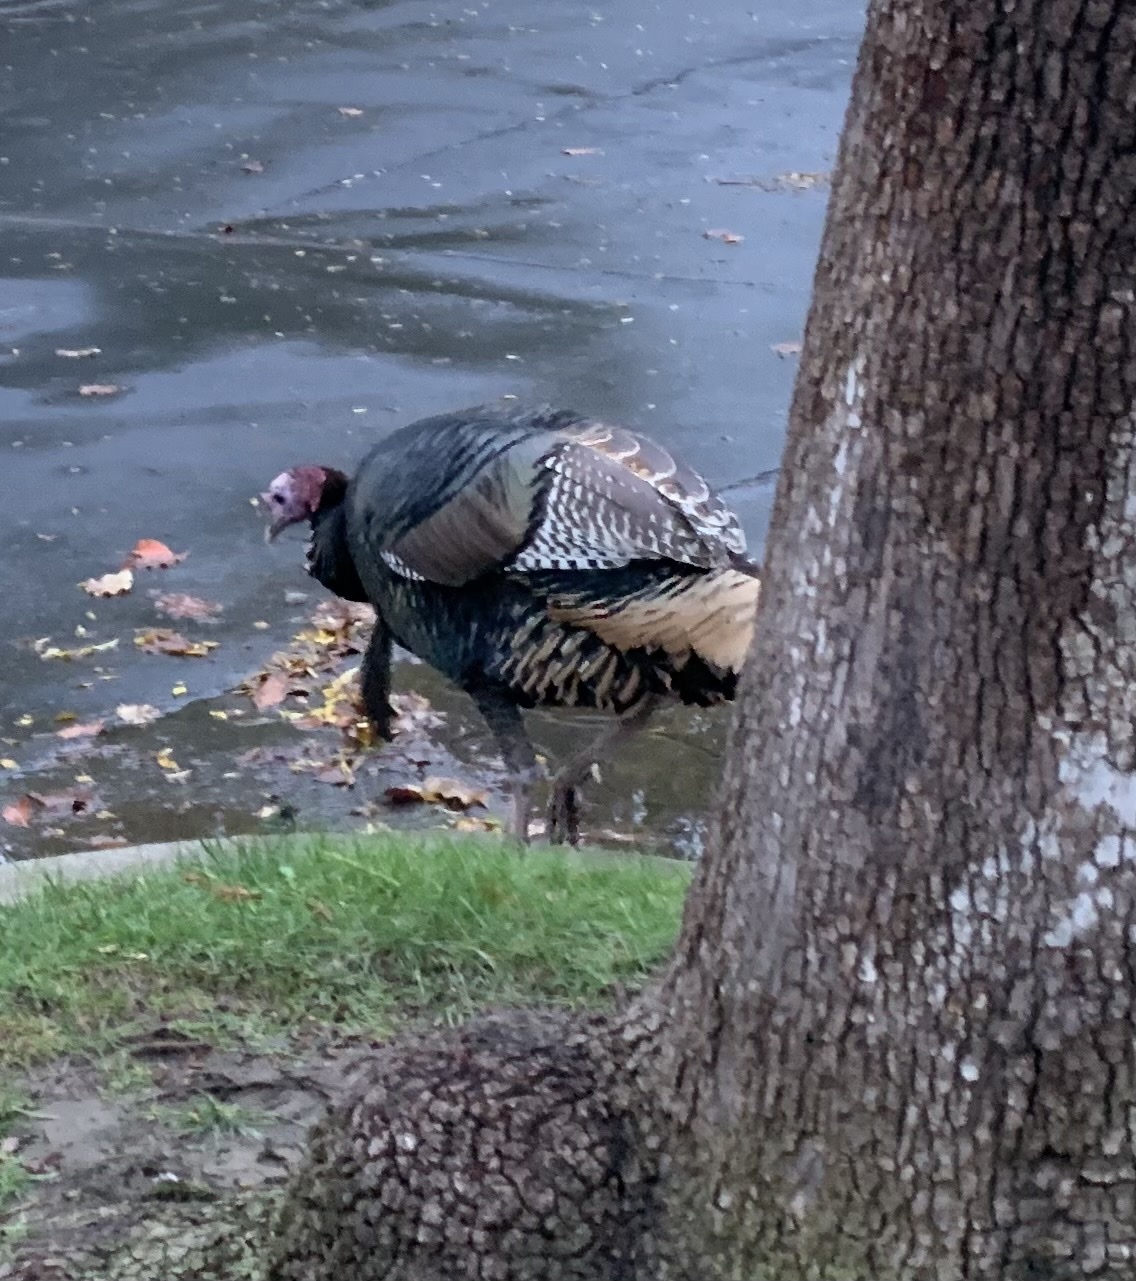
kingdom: Animalia
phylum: Chordata
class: Aves
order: Galliformes
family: Phasianidae
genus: Meleagris
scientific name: Meleagris gallopavo
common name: Wild turkey
